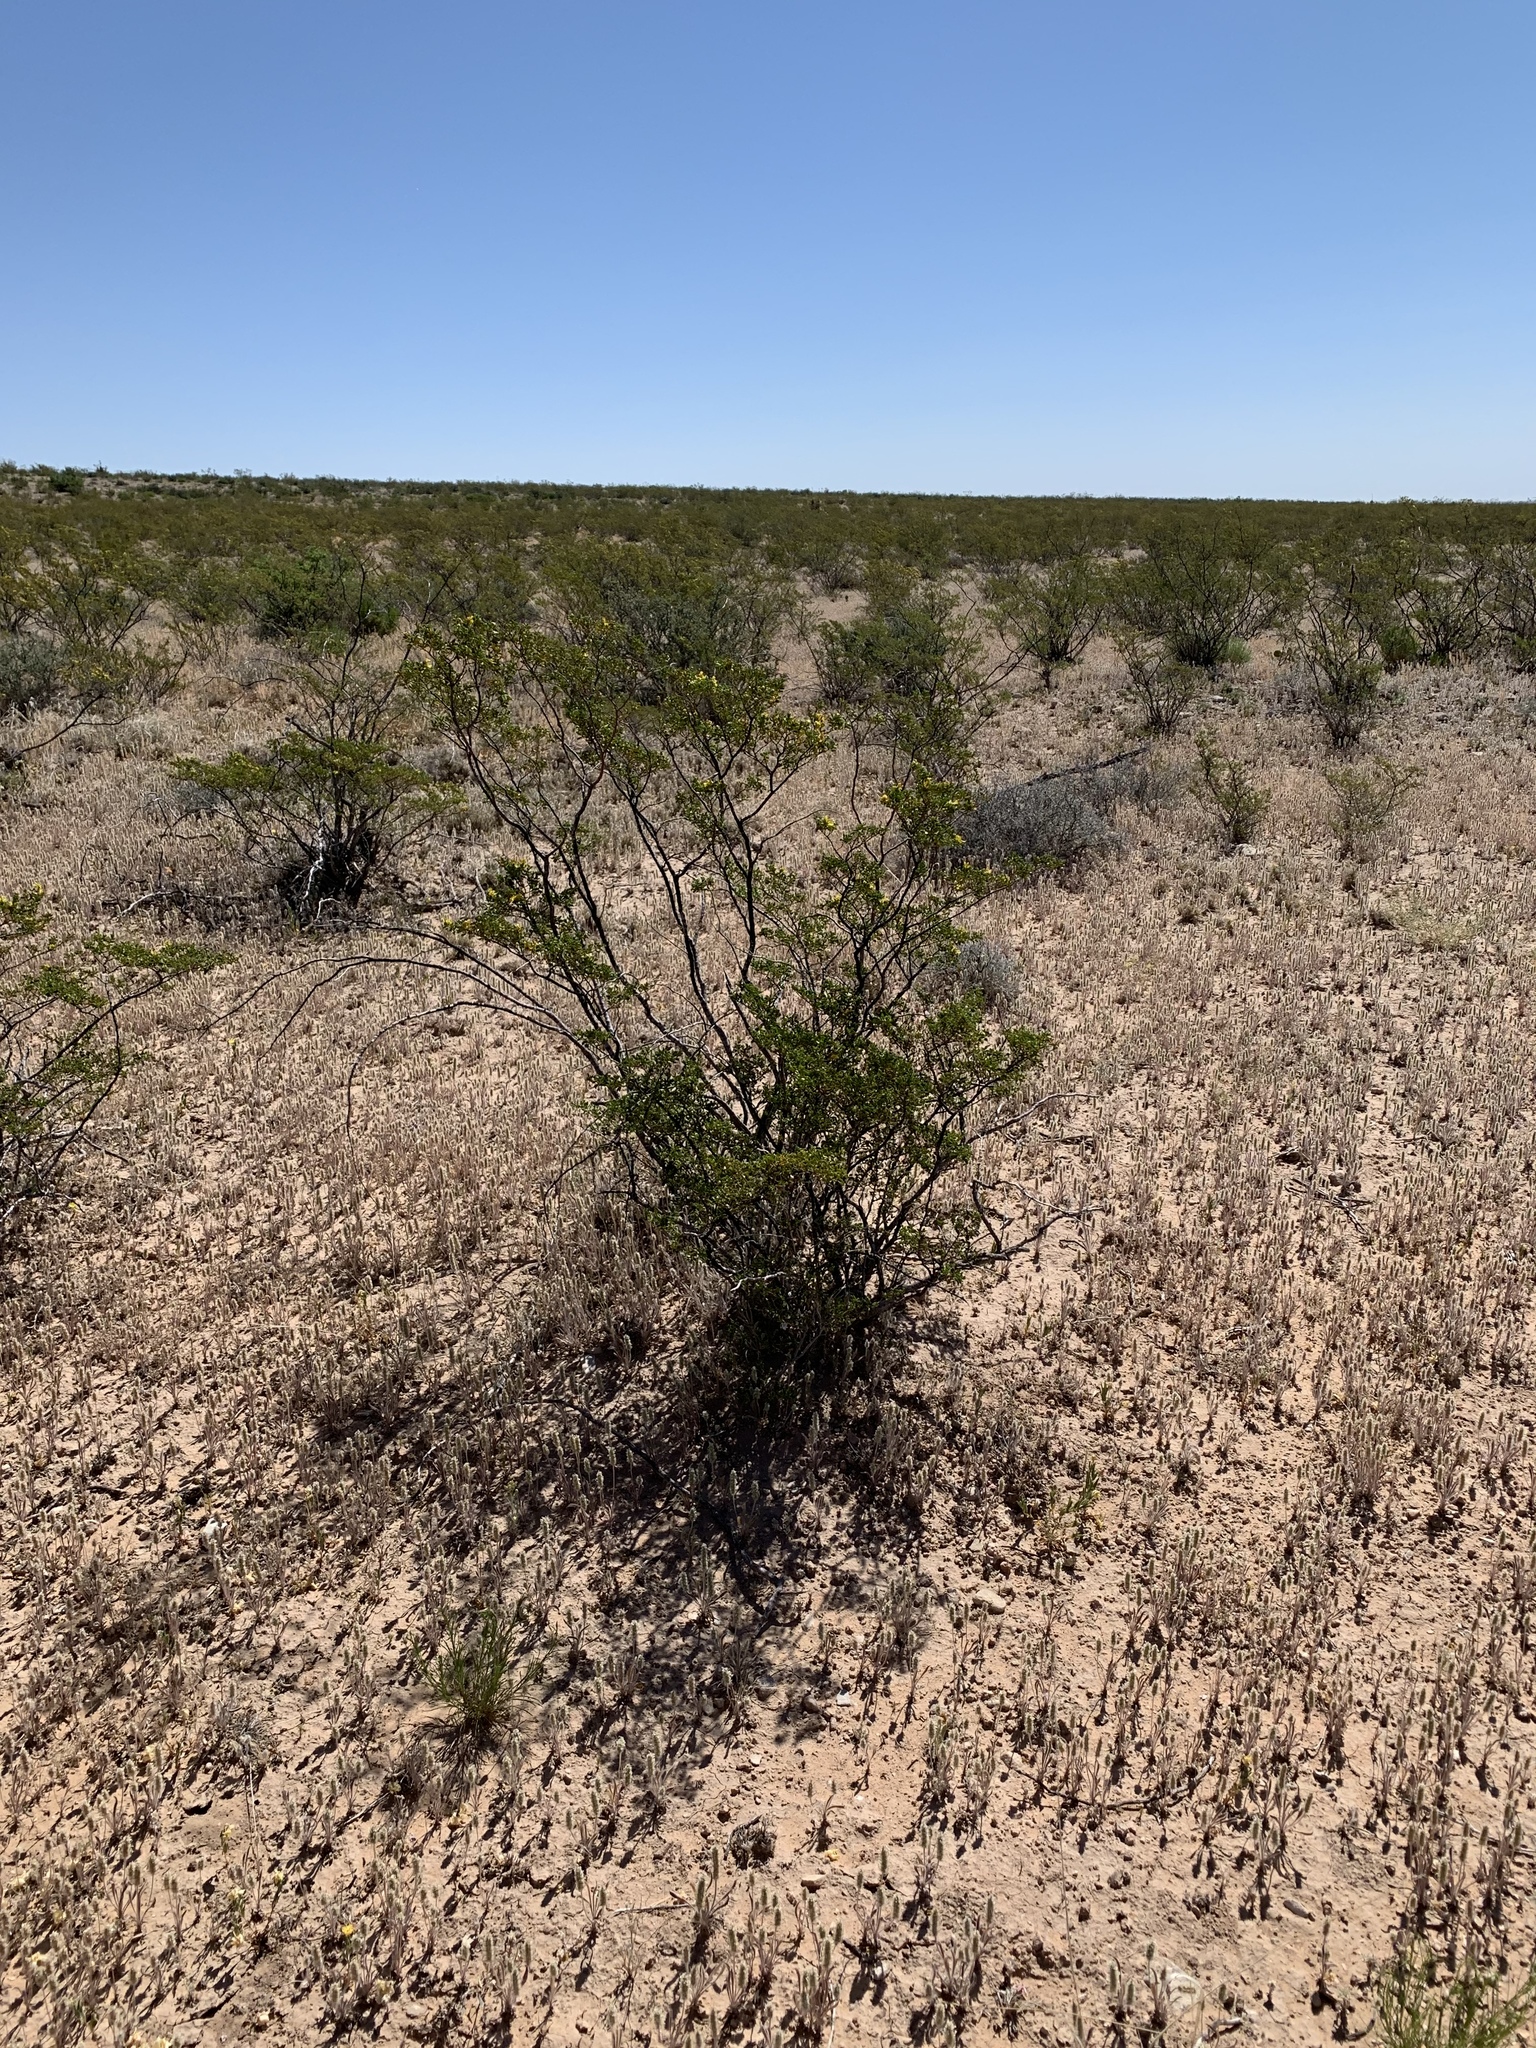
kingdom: Plantae
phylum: Tracheophyta
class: Magnoliopsida
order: Zygophyllales
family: Zygophyllaceae
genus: Larrea
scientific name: Larrea tridentata
